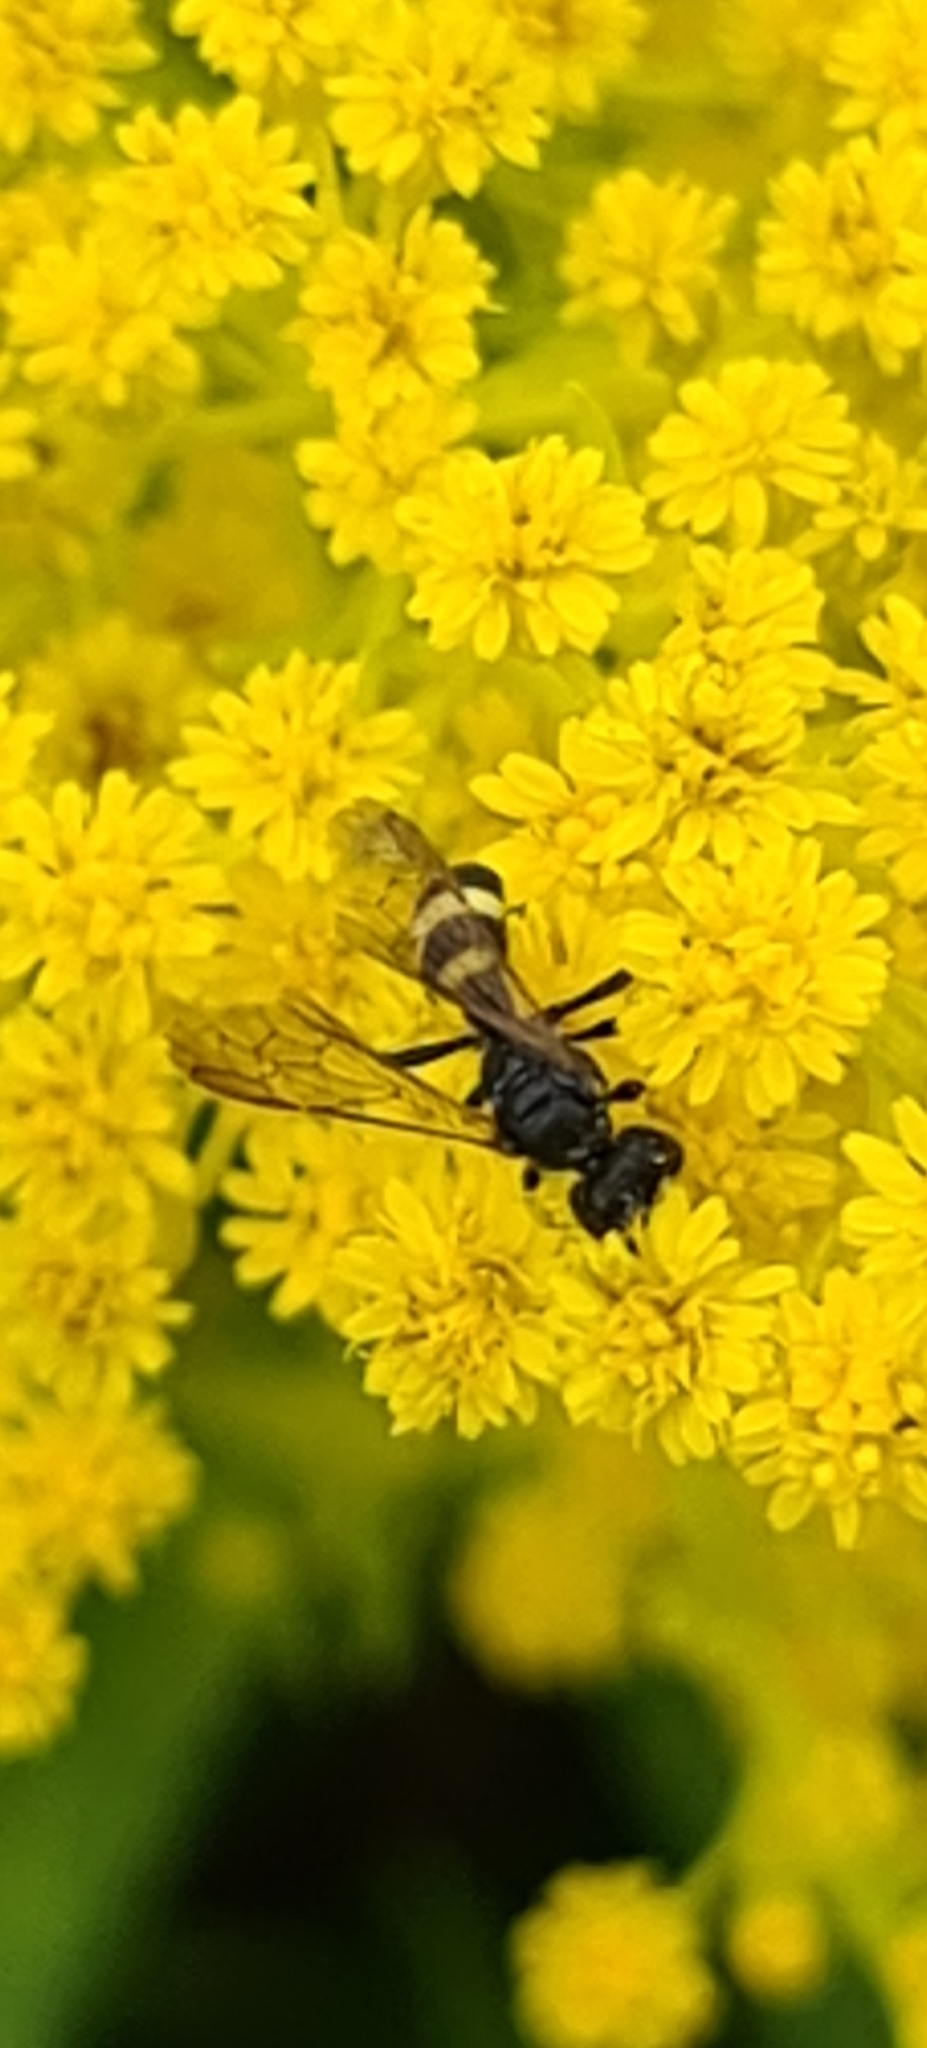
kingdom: Animalia
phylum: Arthropoda
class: Insecta
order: Hymenoptera
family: Crabronidae
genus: Cerceris
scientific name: Cerceris rybyensis
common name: Ornate tailed digger wasp
